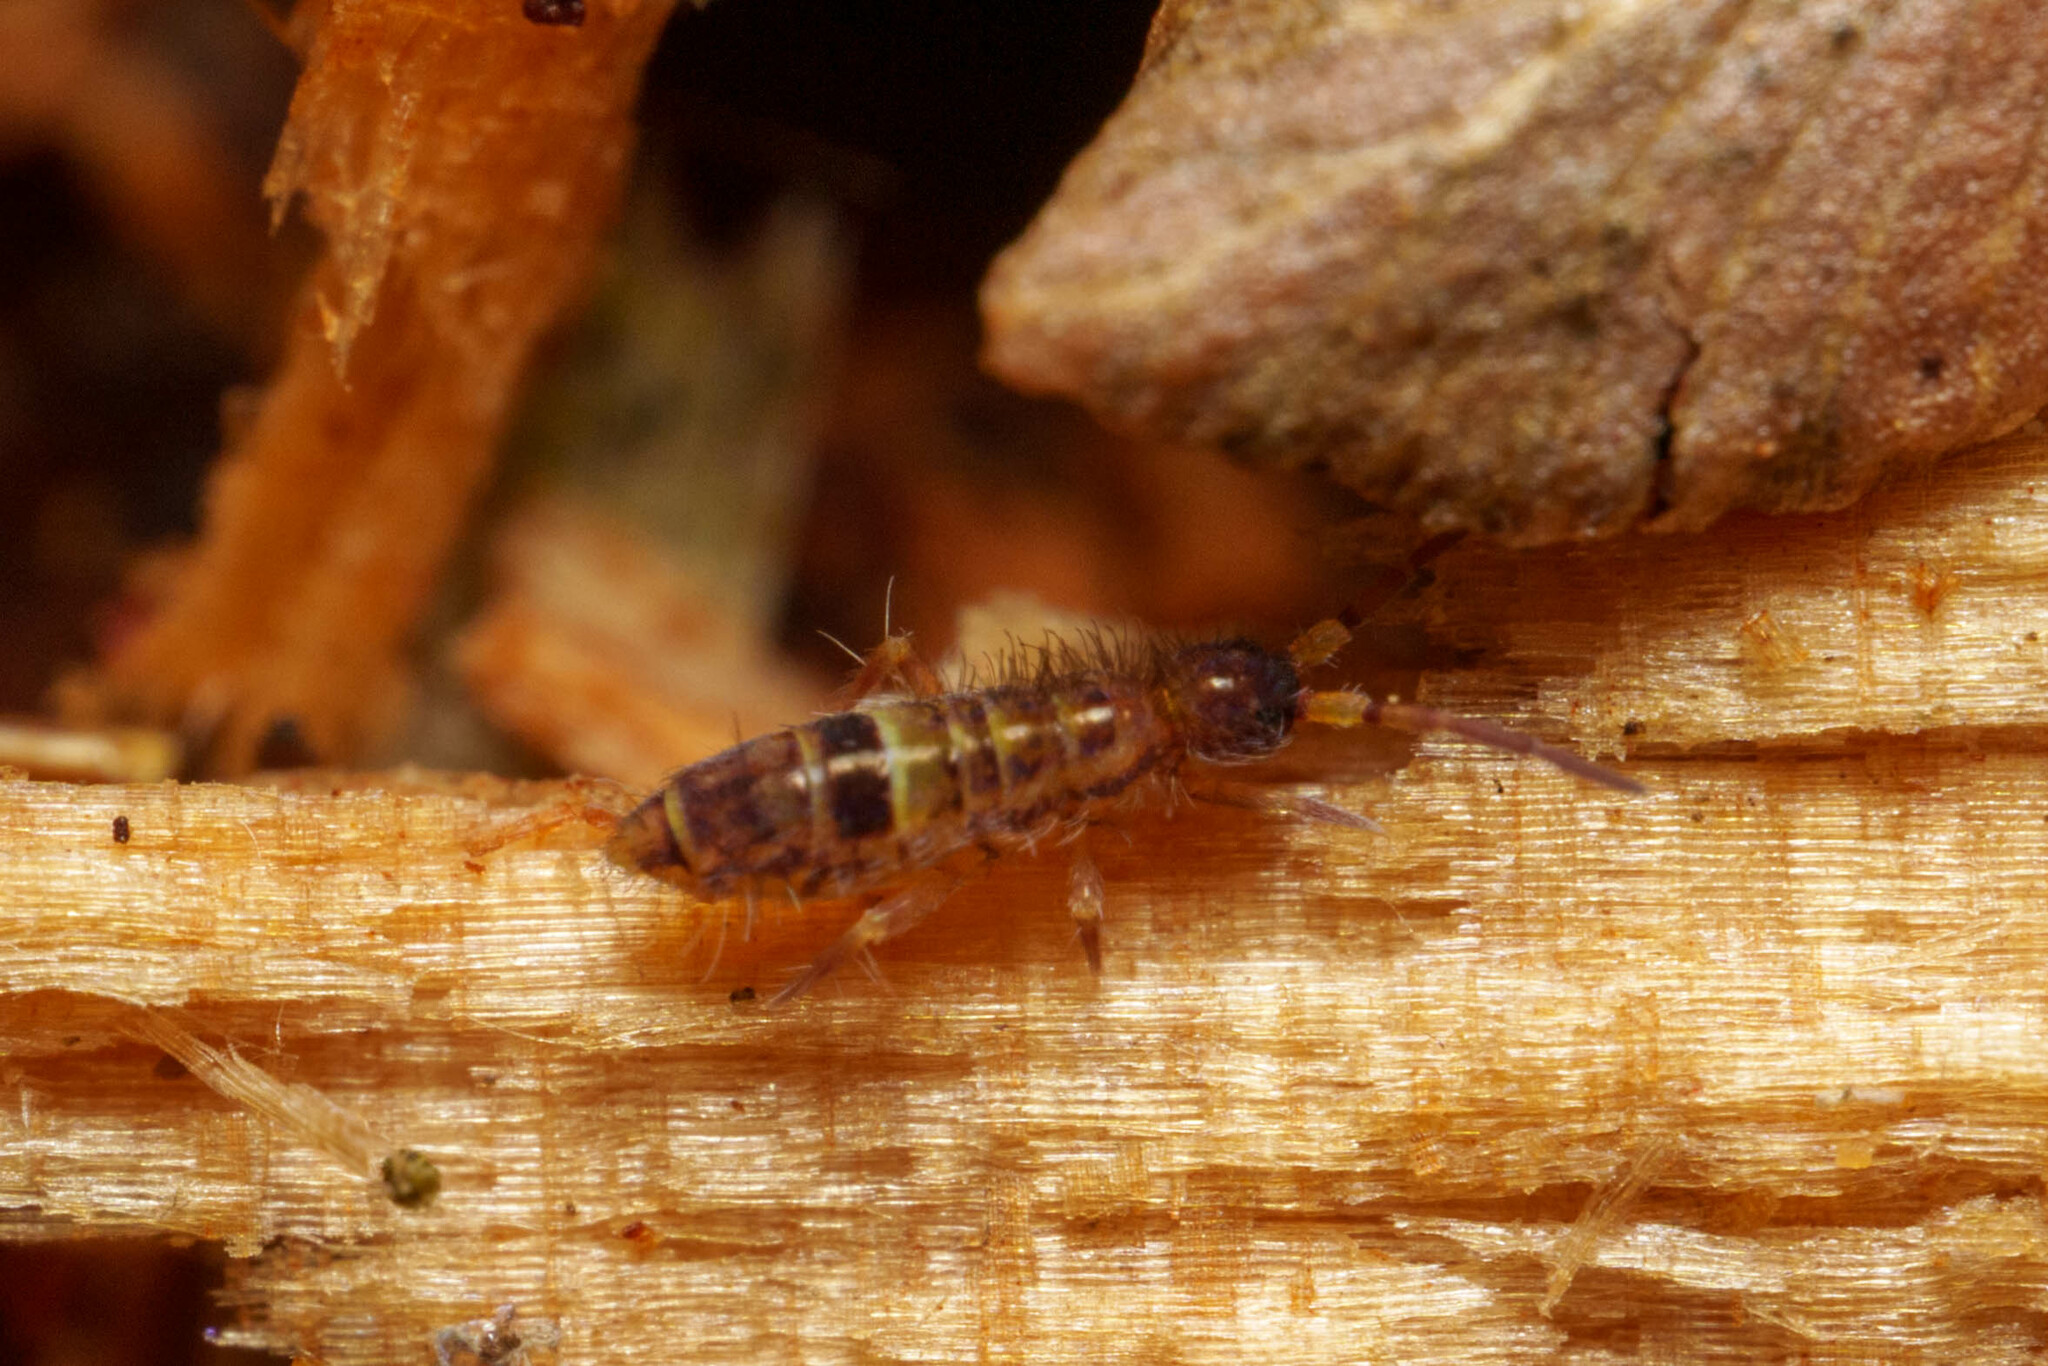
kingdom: Animalia
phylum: Arthropoda
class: Collembola
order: Entomobryomorpha
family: Orchesellidae
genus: Orchesella
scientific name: Orchesella cincta
